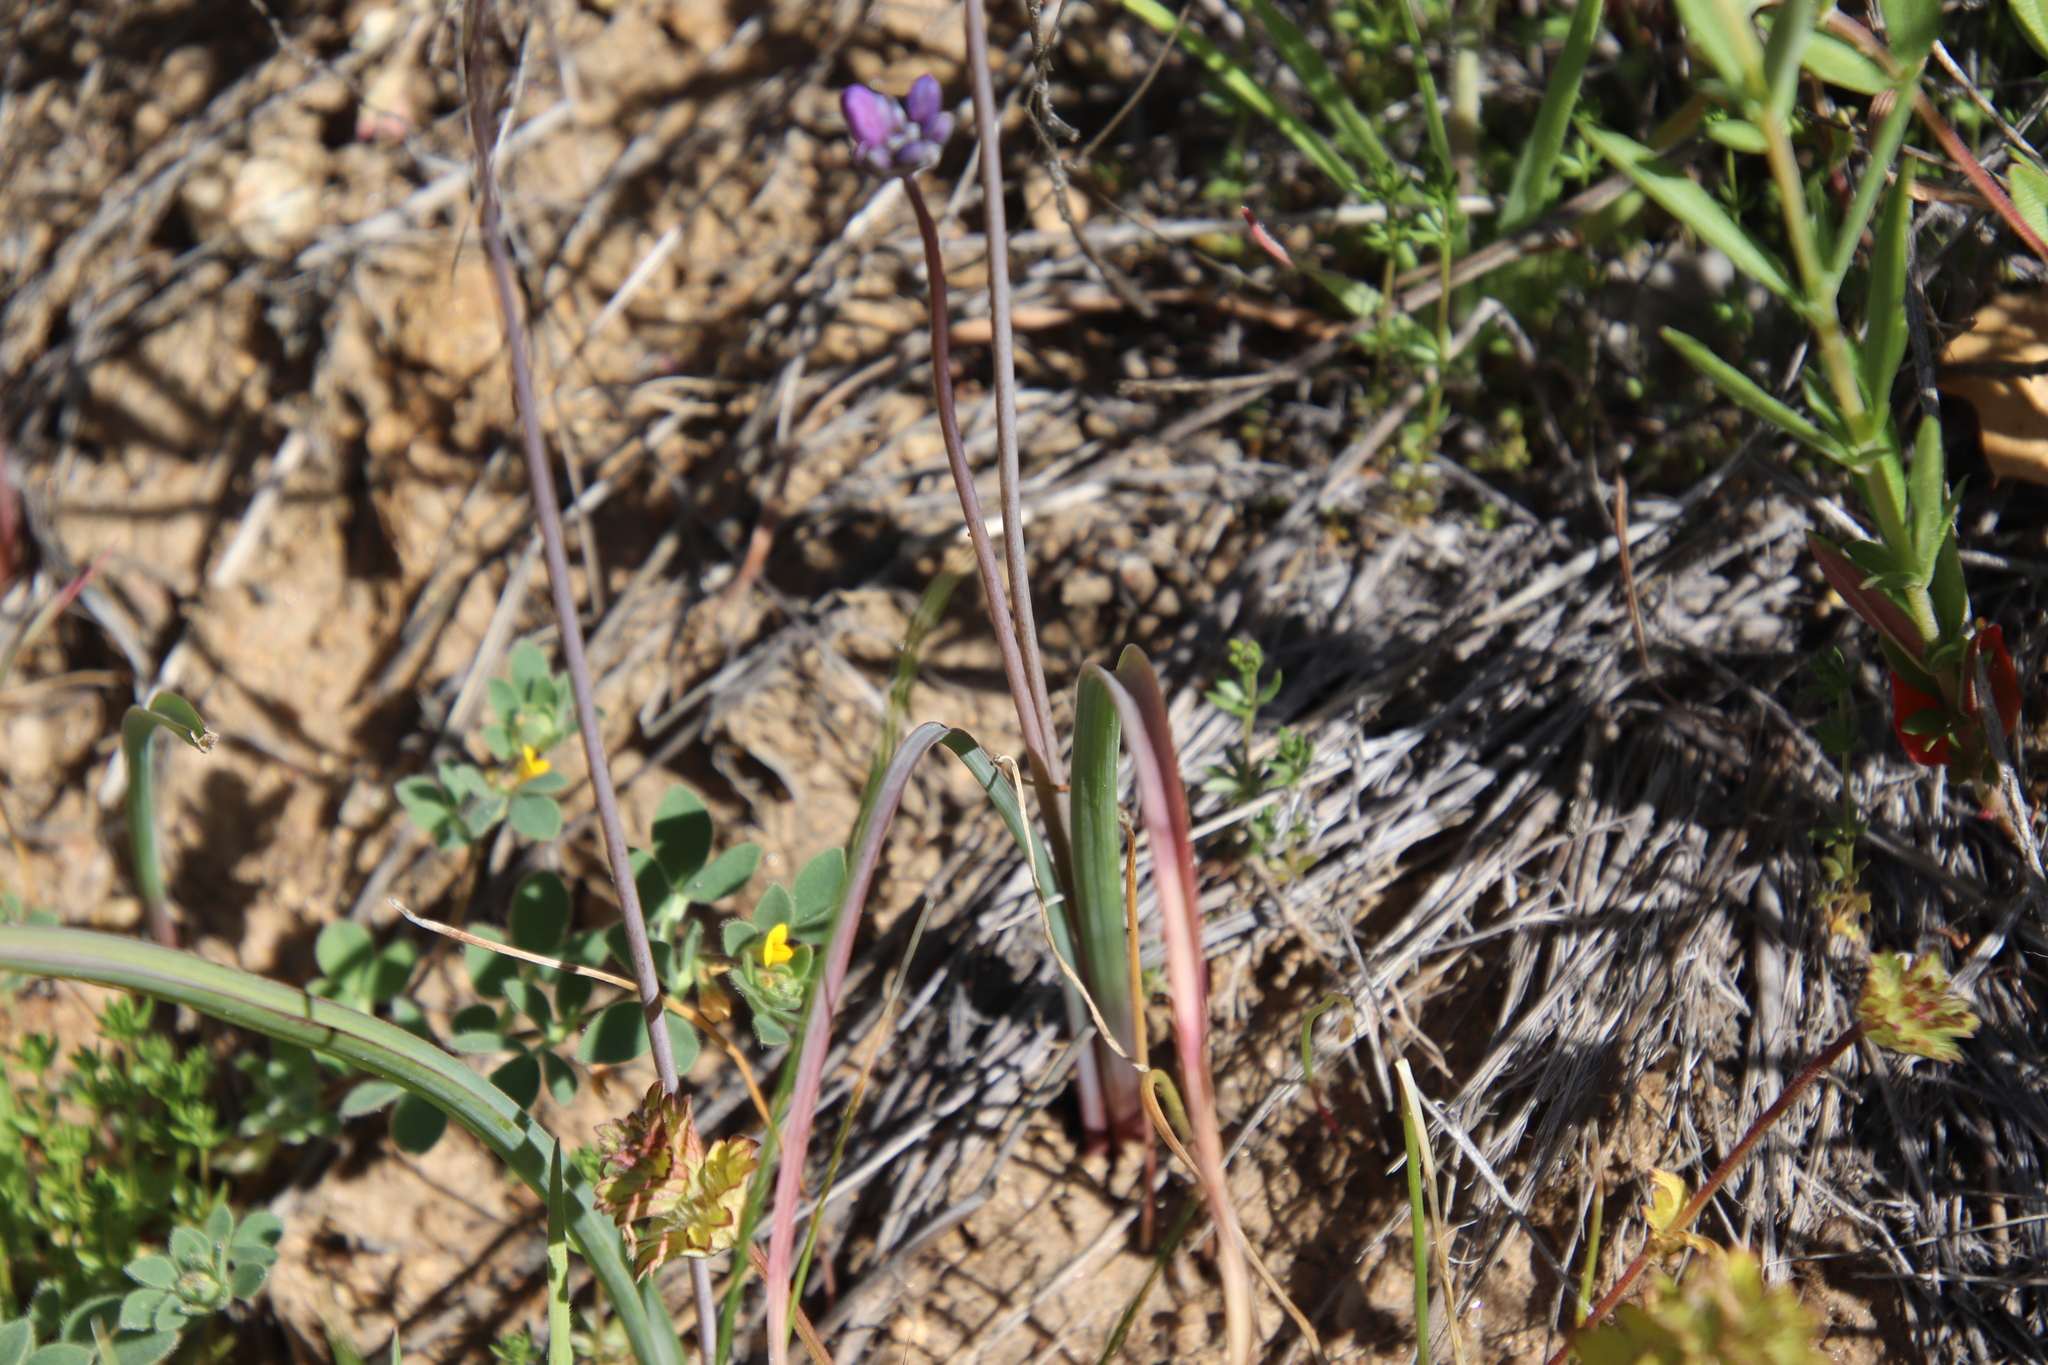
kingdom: Plantae
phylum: Tracheophyta
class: Liliopsida
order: Asparagales
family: Asparagaceae
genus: Dipterostemon
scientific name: Dipterostemon capitatus
